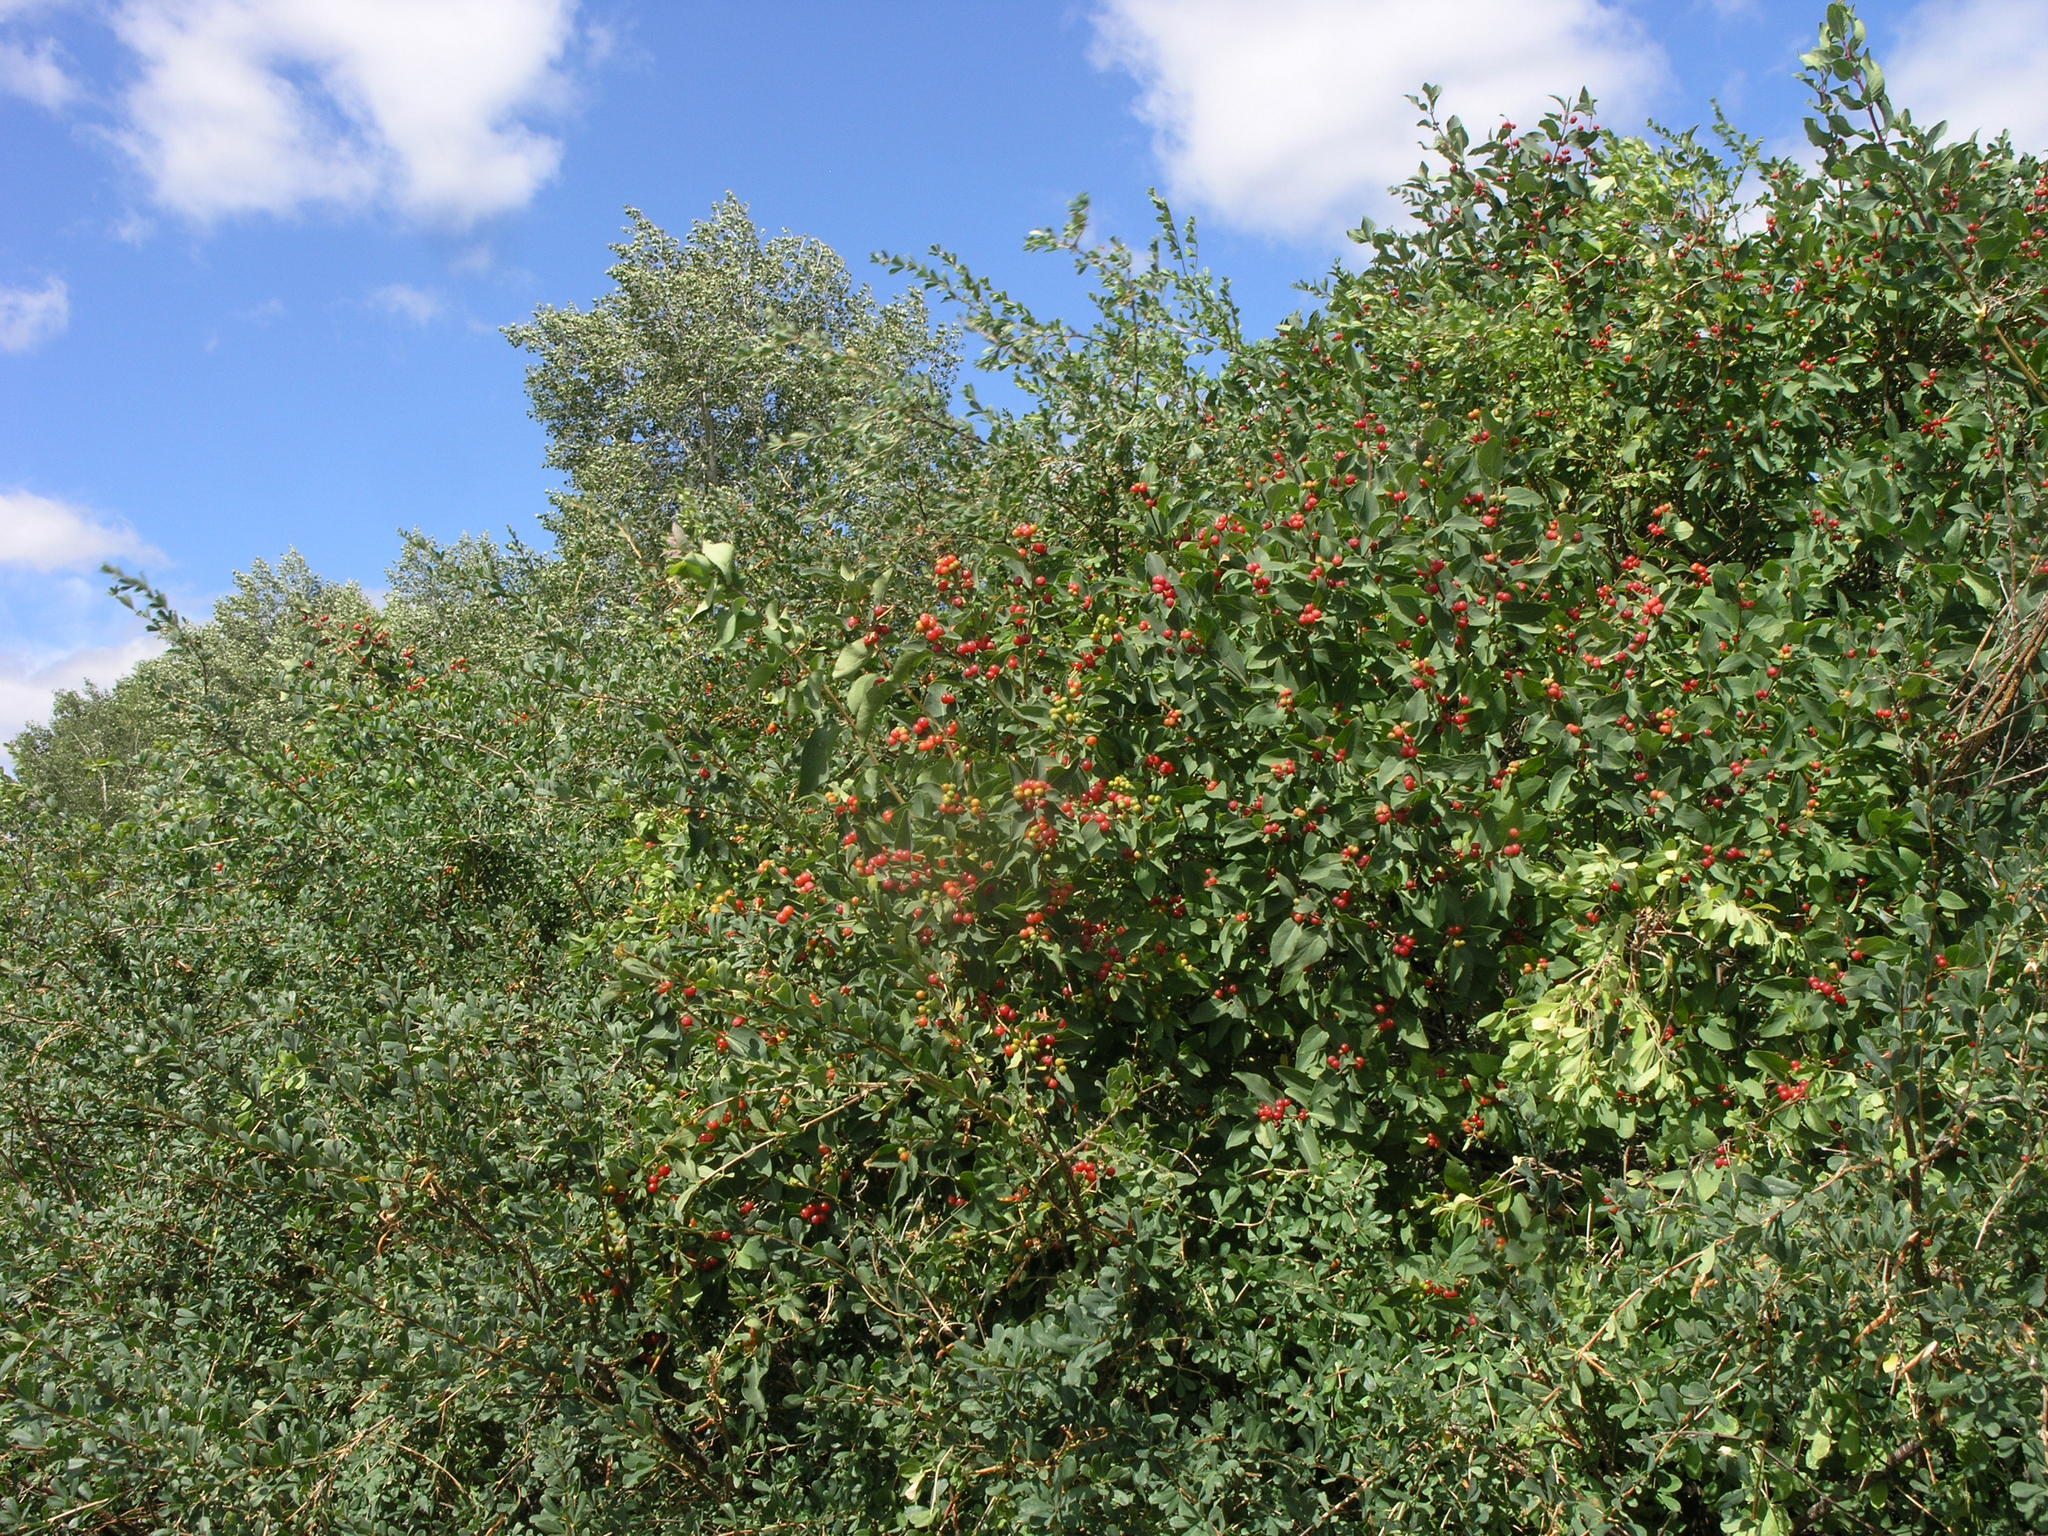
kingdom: Plantae
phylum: Tracheophyta
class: Magnoliopsida
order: Dipsacales
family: Caprifoliaceae
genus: Lonicera
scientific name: Lonicera tatarica
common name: Tatarian honeysuckle
